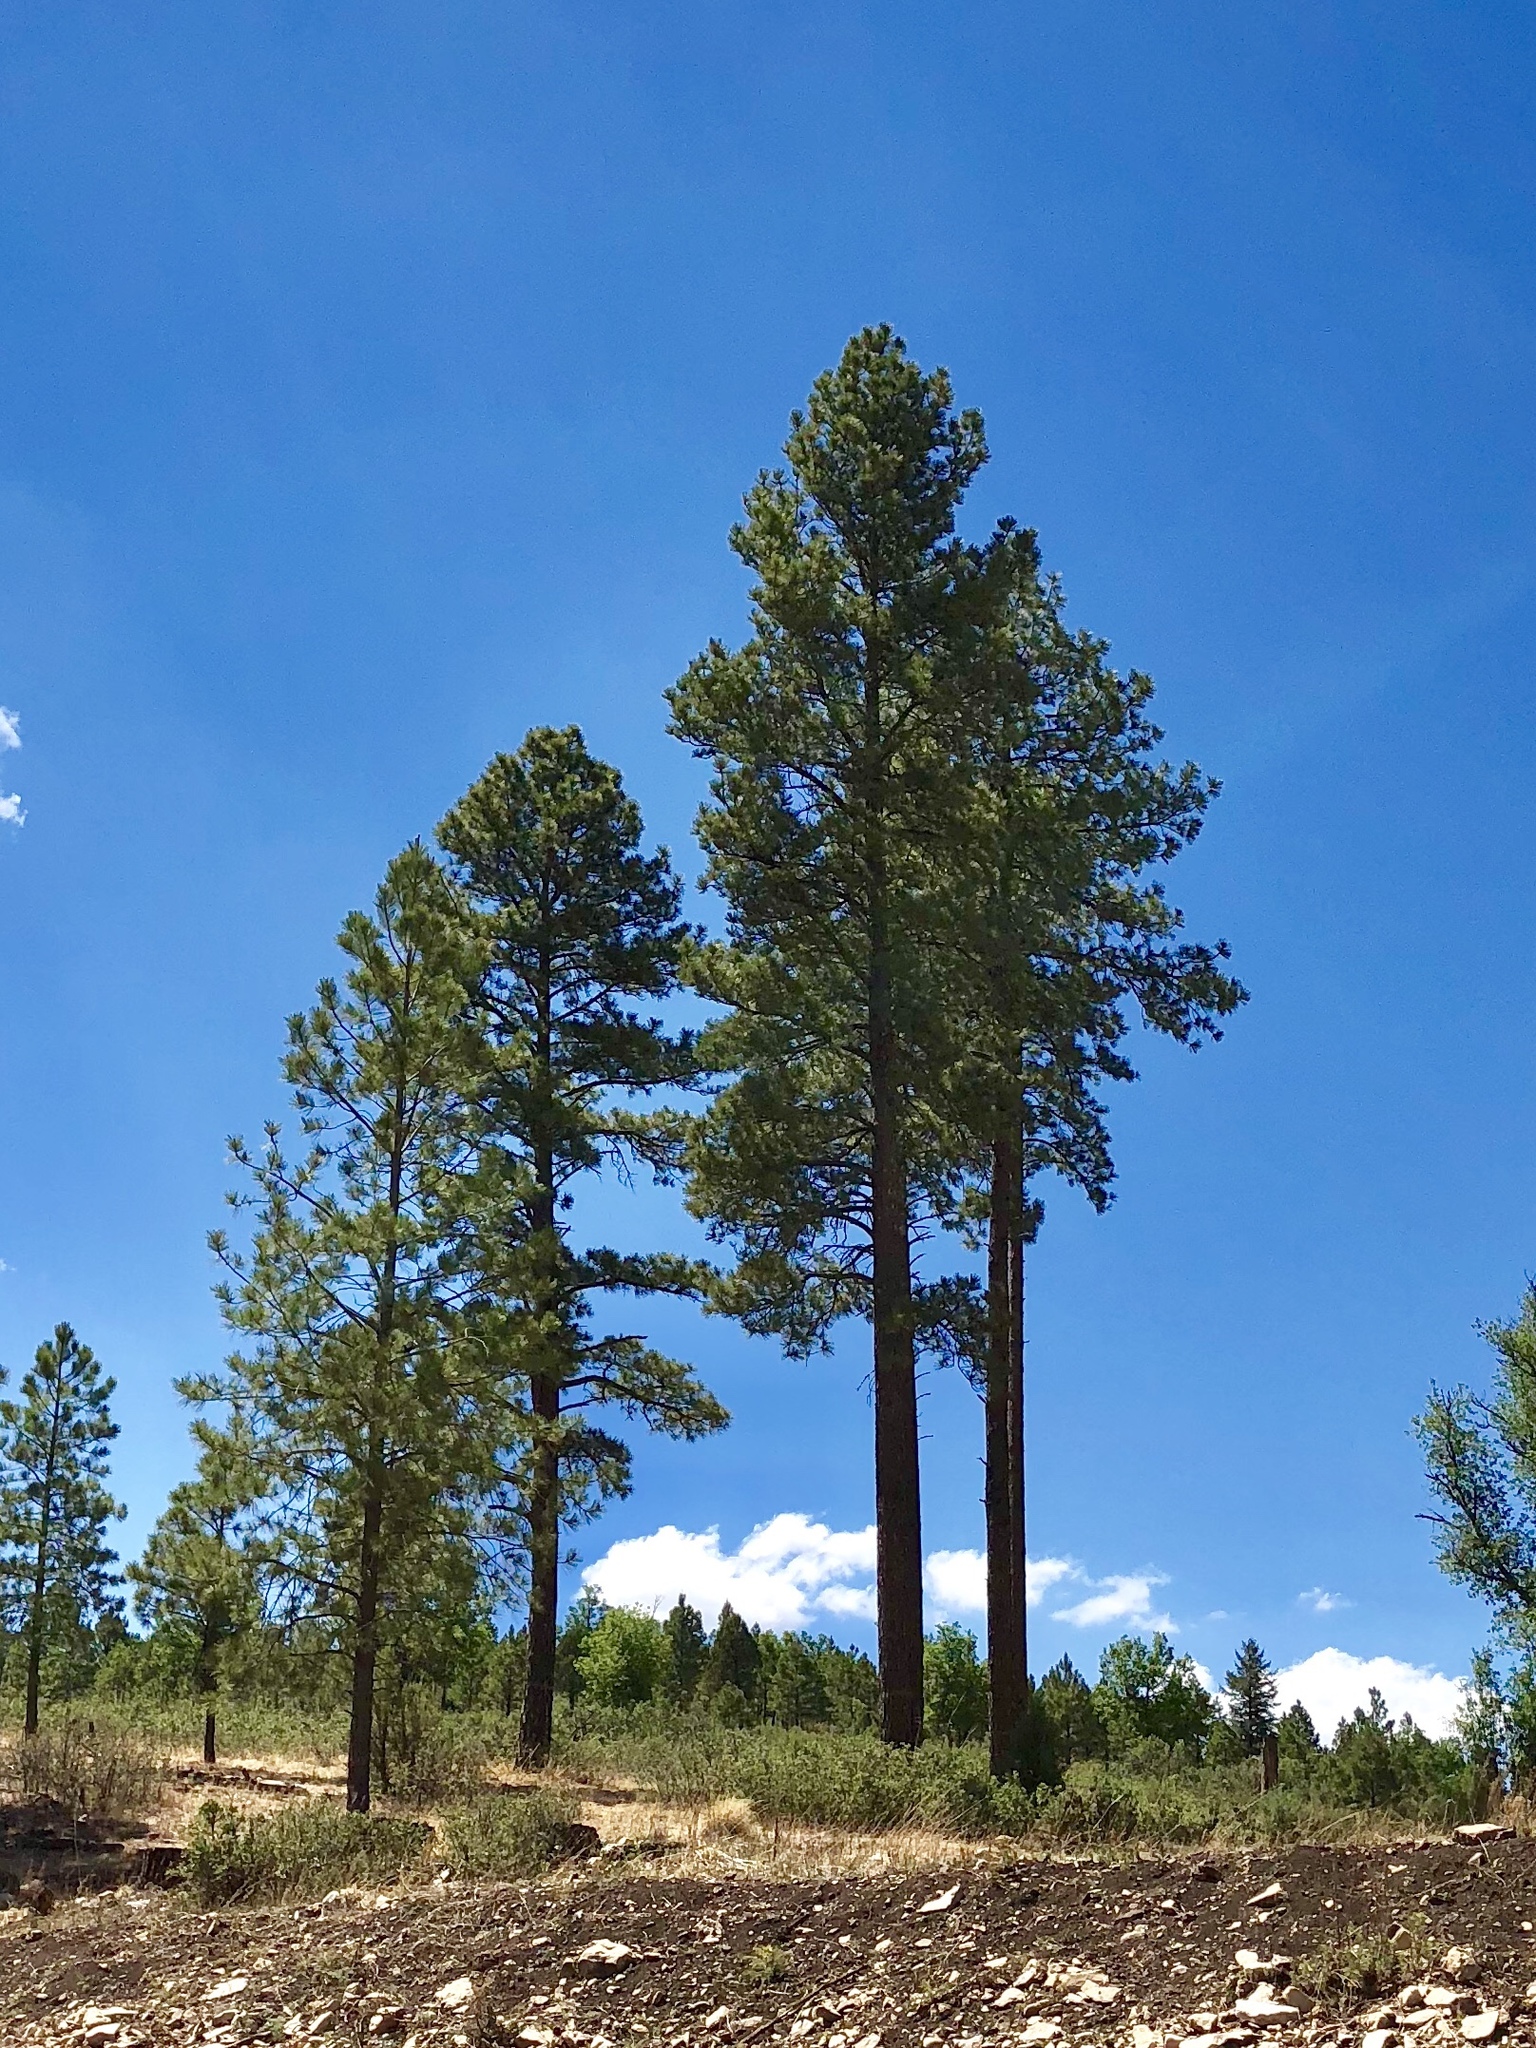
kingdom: Plantae
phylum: Tracheophyta
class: Pinopsida
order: Pinales
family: Pinaceae
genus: Pinus
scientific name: Pinus ponderosa
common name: Western yellow-pine
